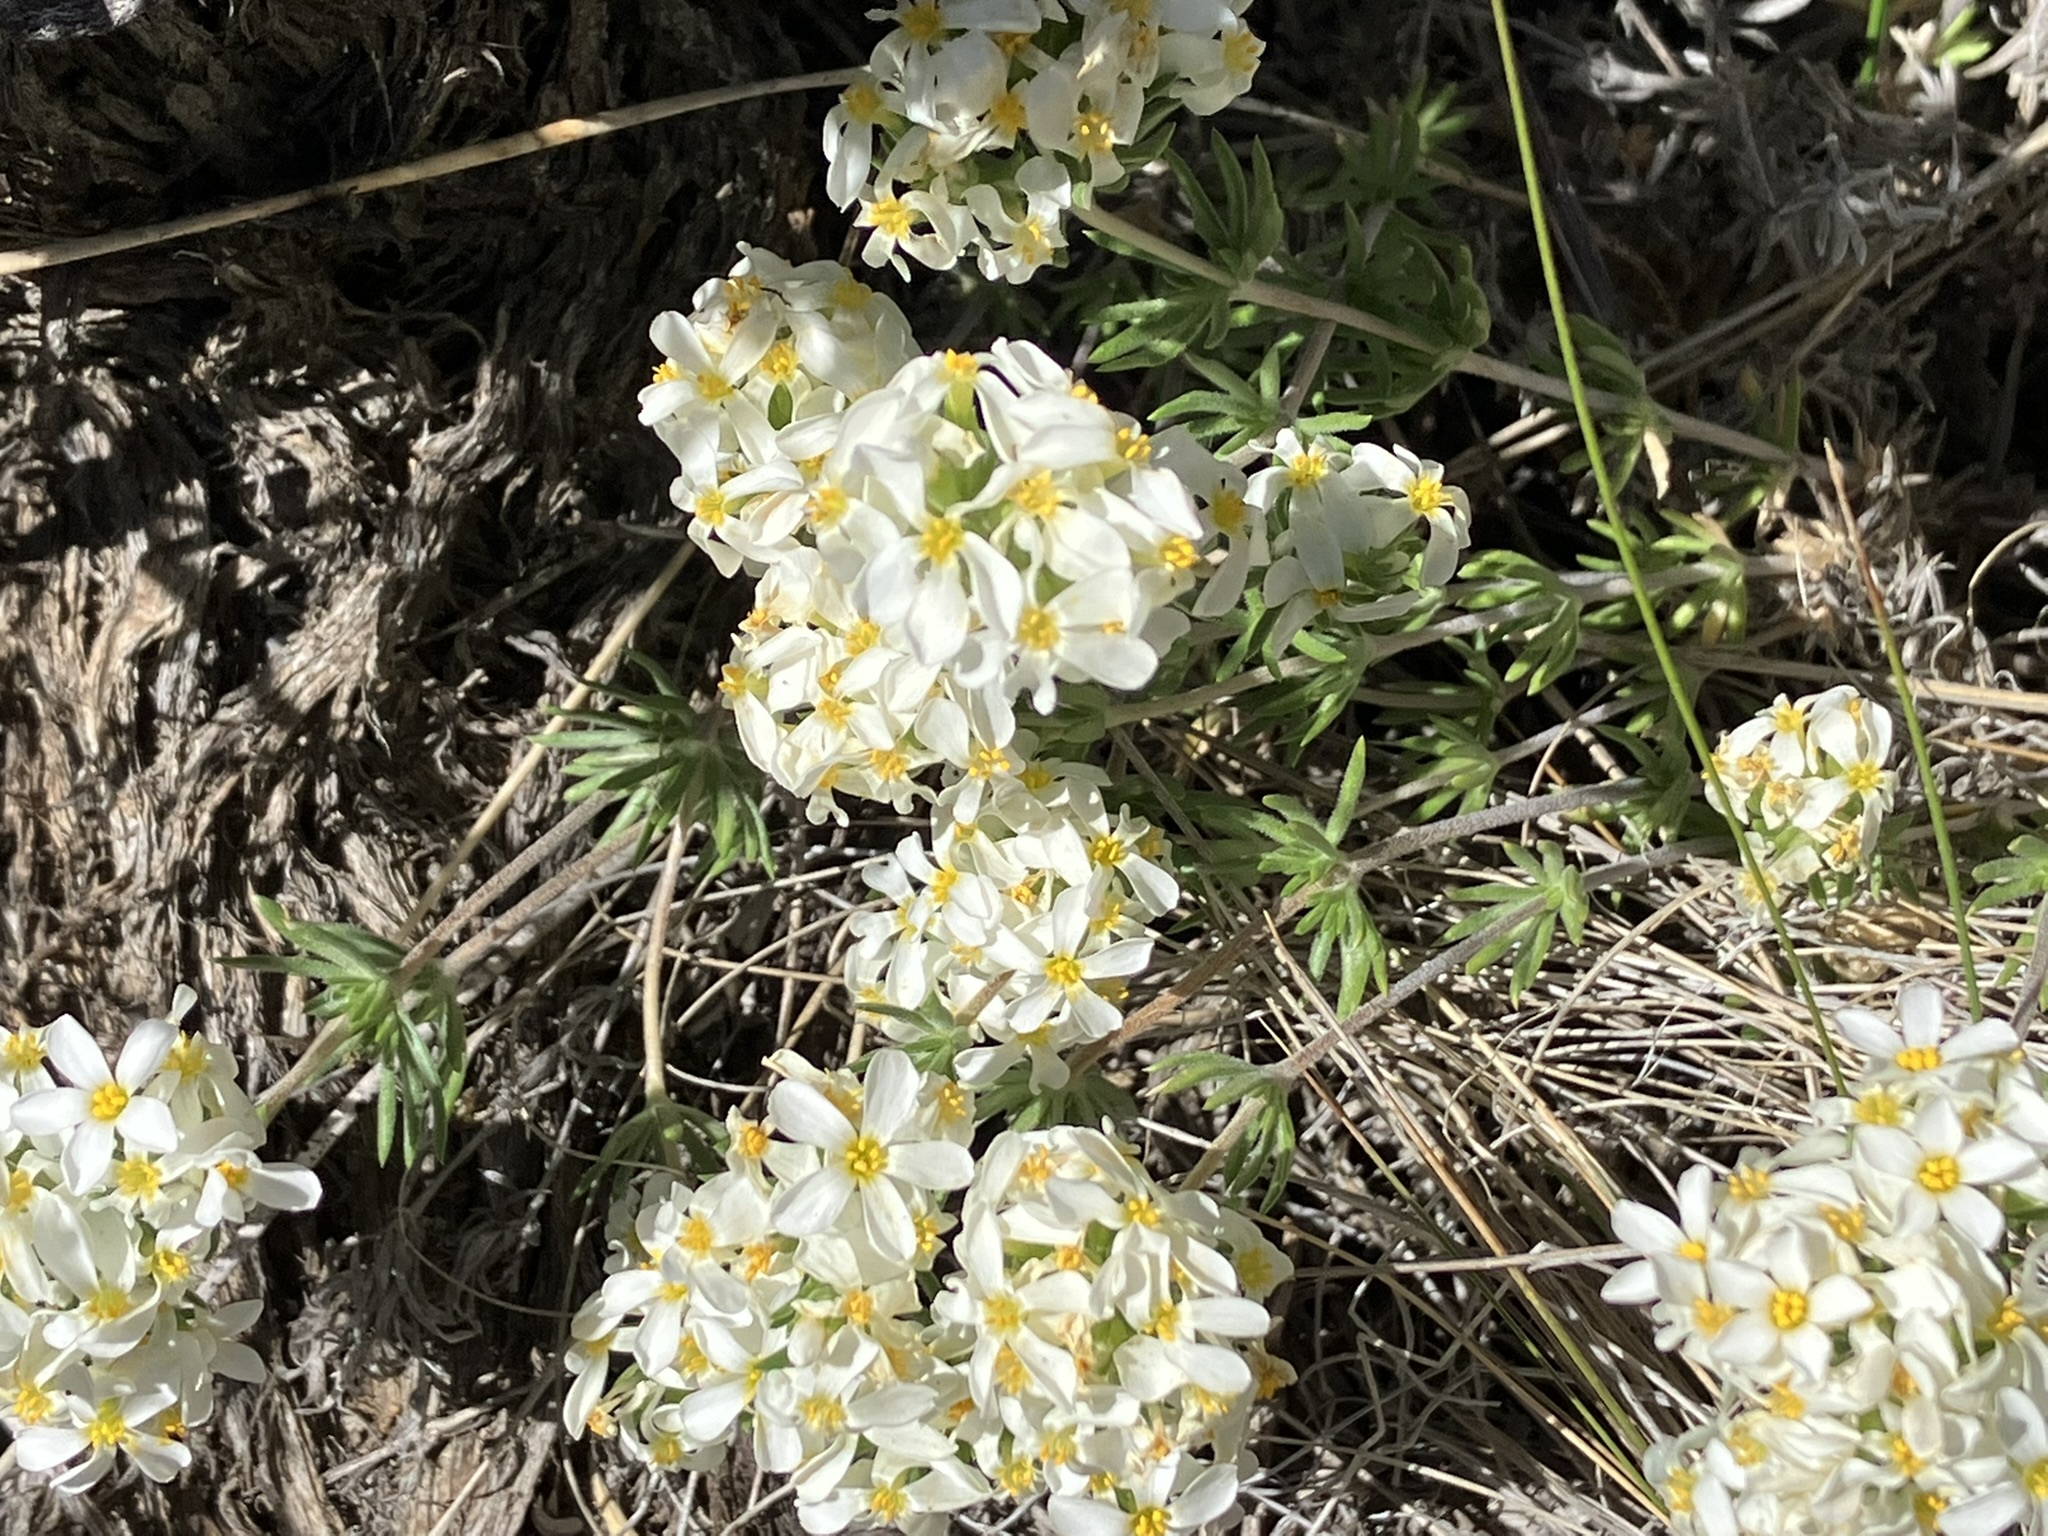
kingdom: Plantae
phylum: Tracheophyta
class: Magnoliopsida
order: Ericales
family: Polemoniaceae
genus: Leptosiphon
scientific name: Leptosiphon nuttallii
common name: Nuttall's linanthus
